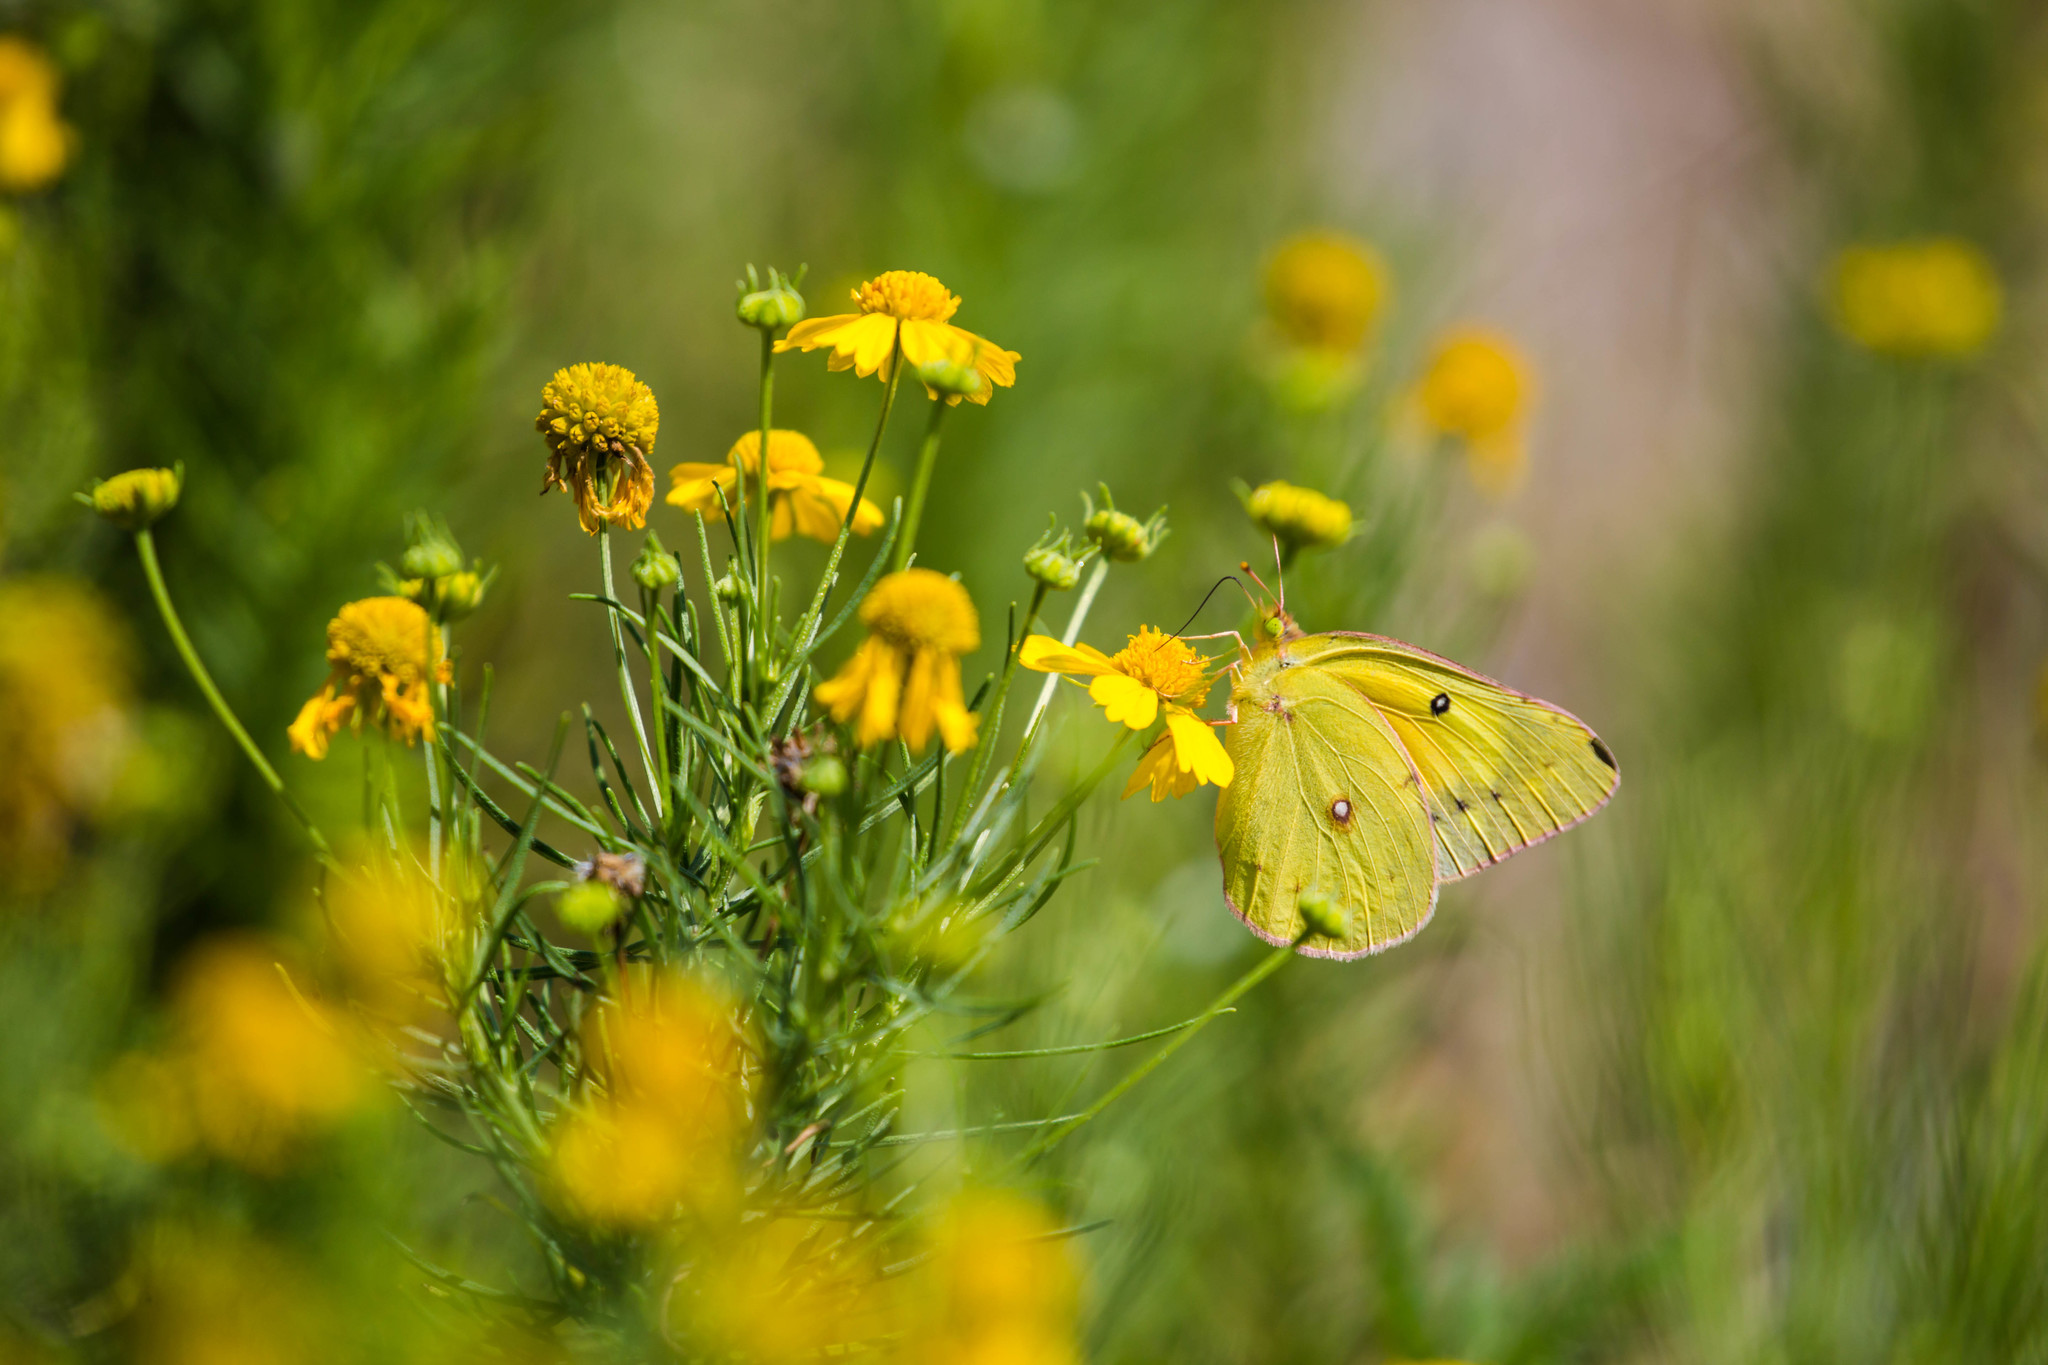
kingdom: Animalia
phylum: Arthropoda
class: Insecta
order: Lepidoptera
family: Pieridae
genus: Colias
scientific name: Colias eurytheme
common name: Alfalfa butterfly
